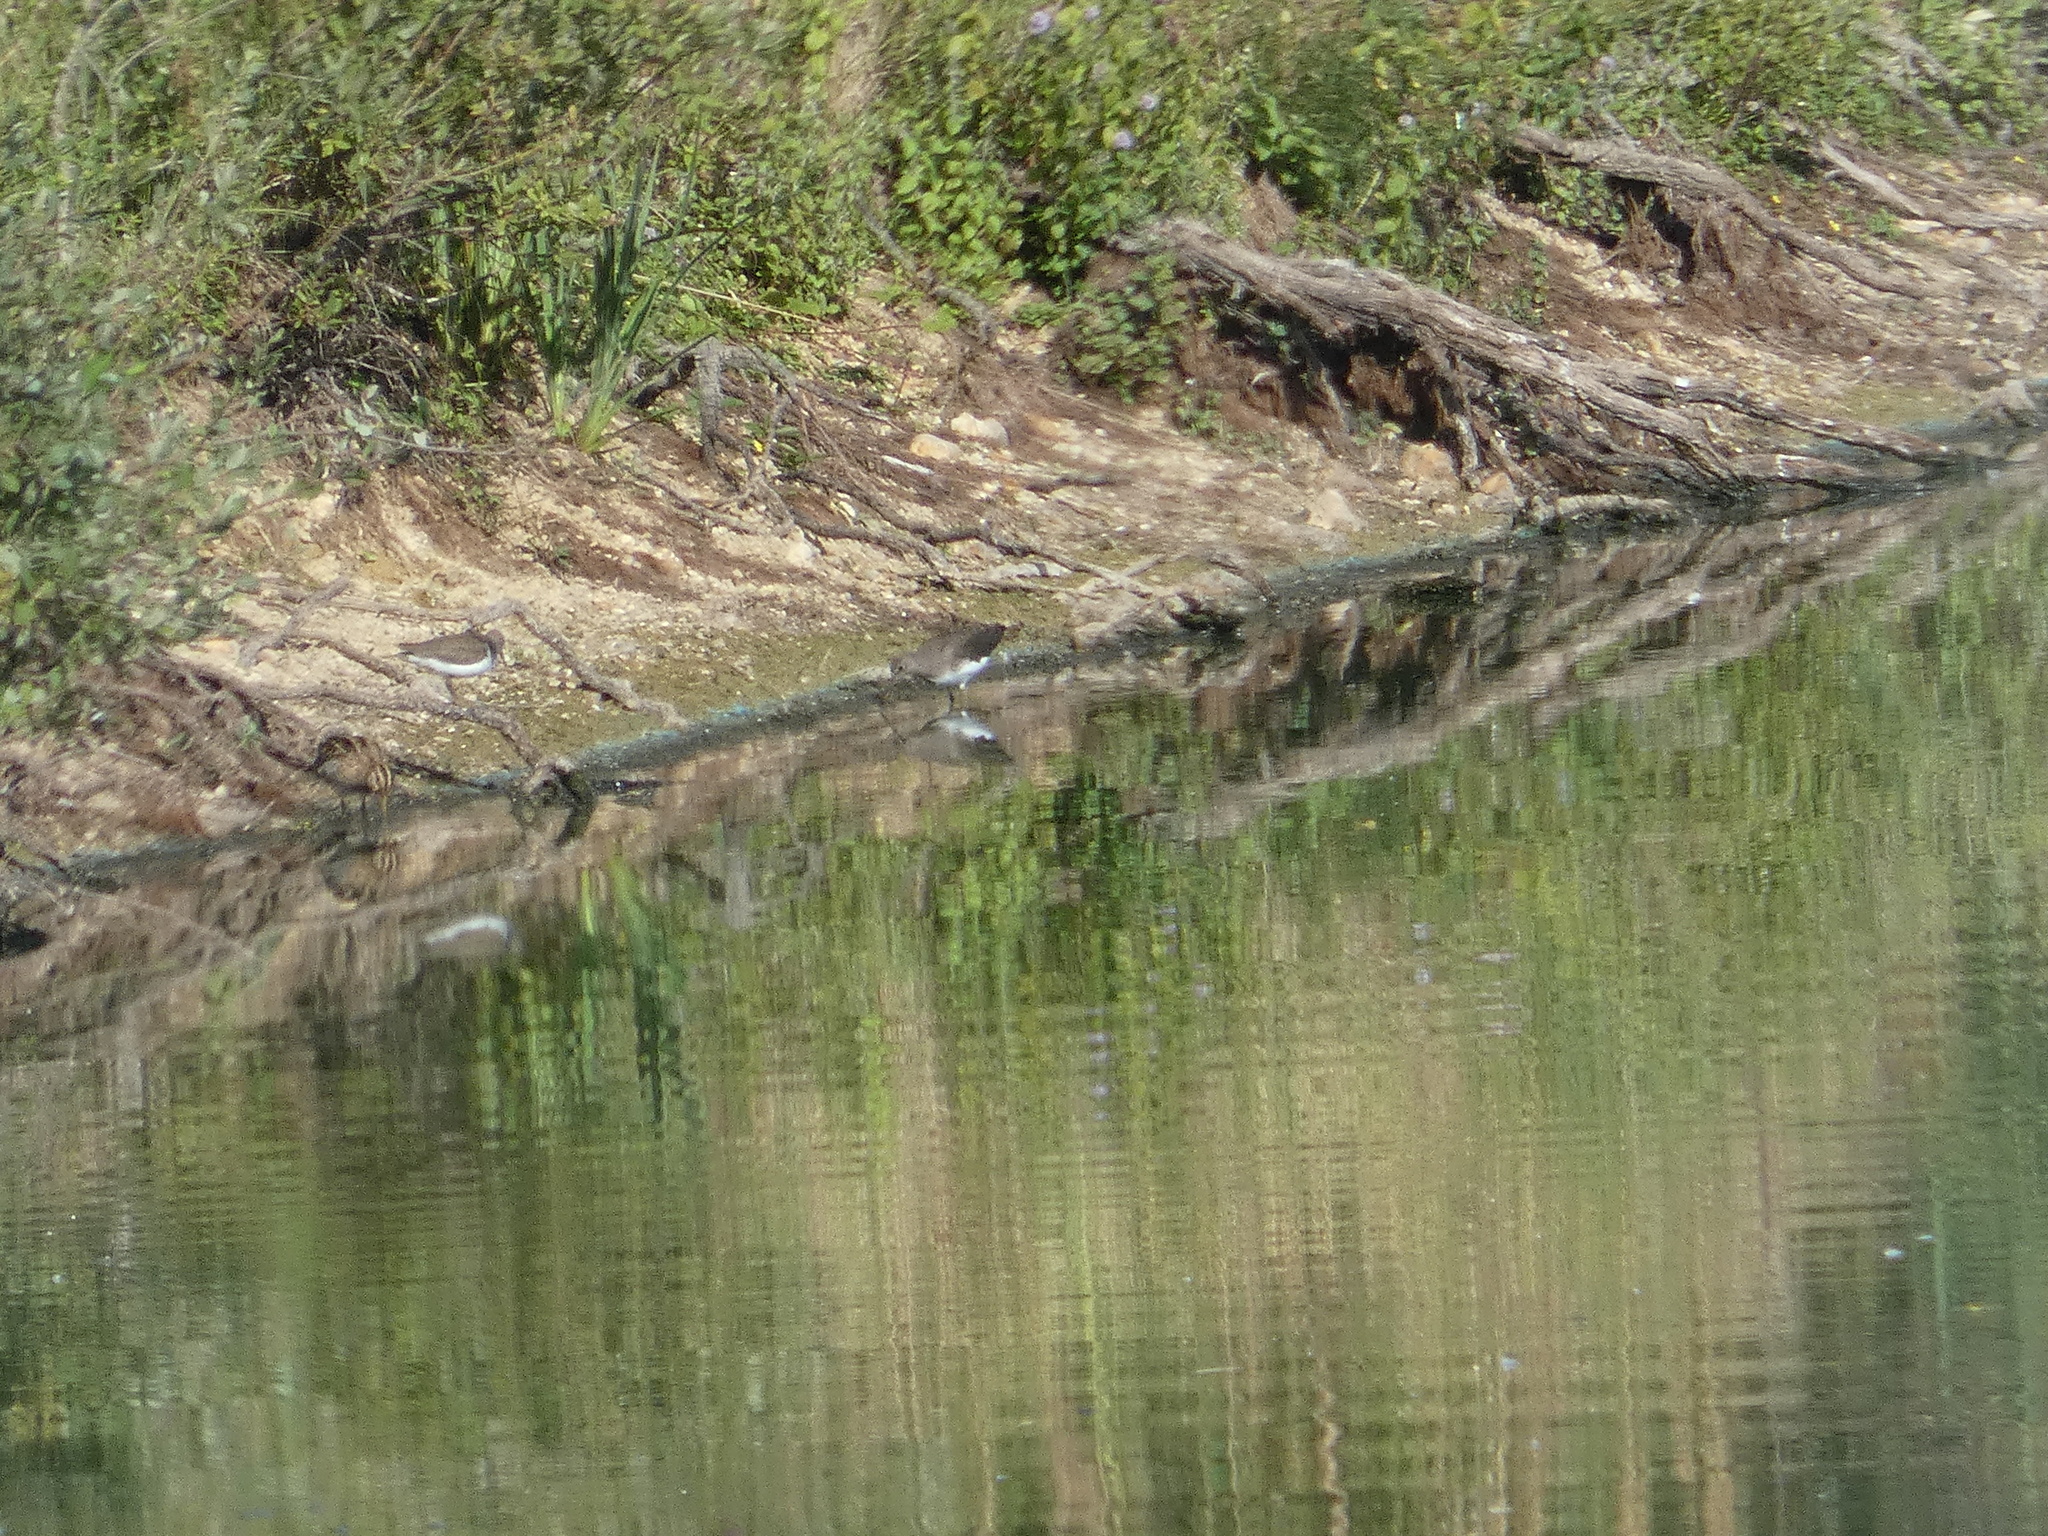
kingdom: Animalia
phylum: Chordata
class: Aves
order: Charadriiformes
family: Scolopacidae
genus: Tringa
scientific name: Tringa ochropus
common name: Green sandpiper
